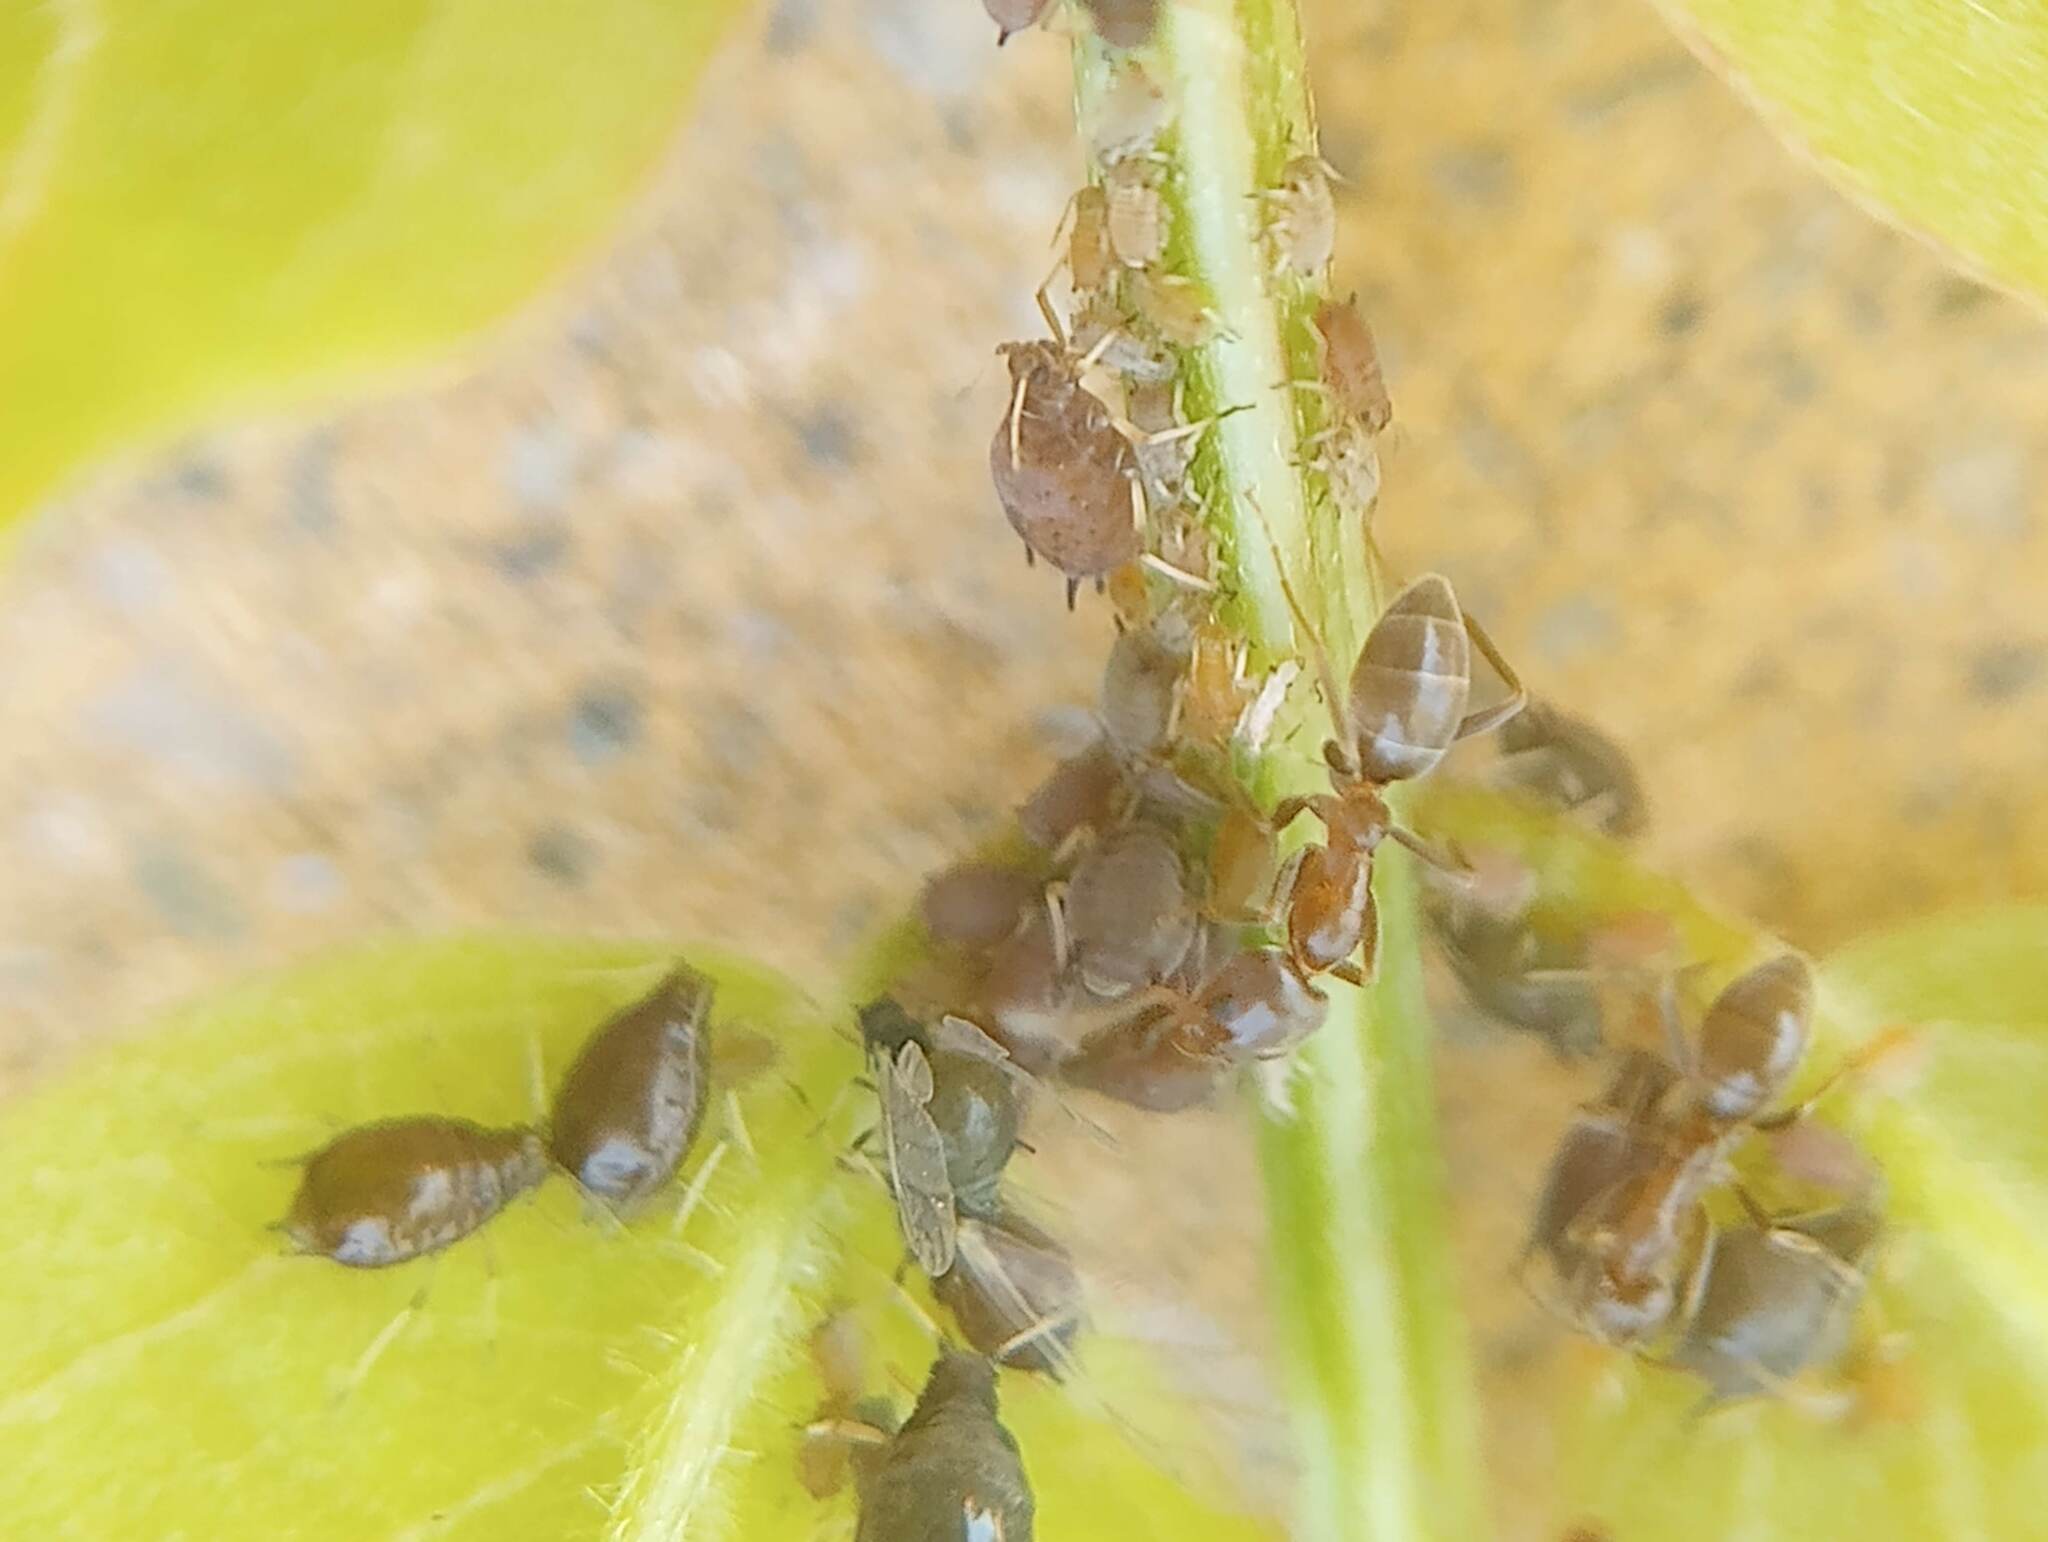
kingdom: Animalia
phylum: Arthropoda
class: Insecta
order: Hymenoptera
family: Formicidae
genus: Linepithema
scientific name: Linepithema humile
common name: Argentine ant
